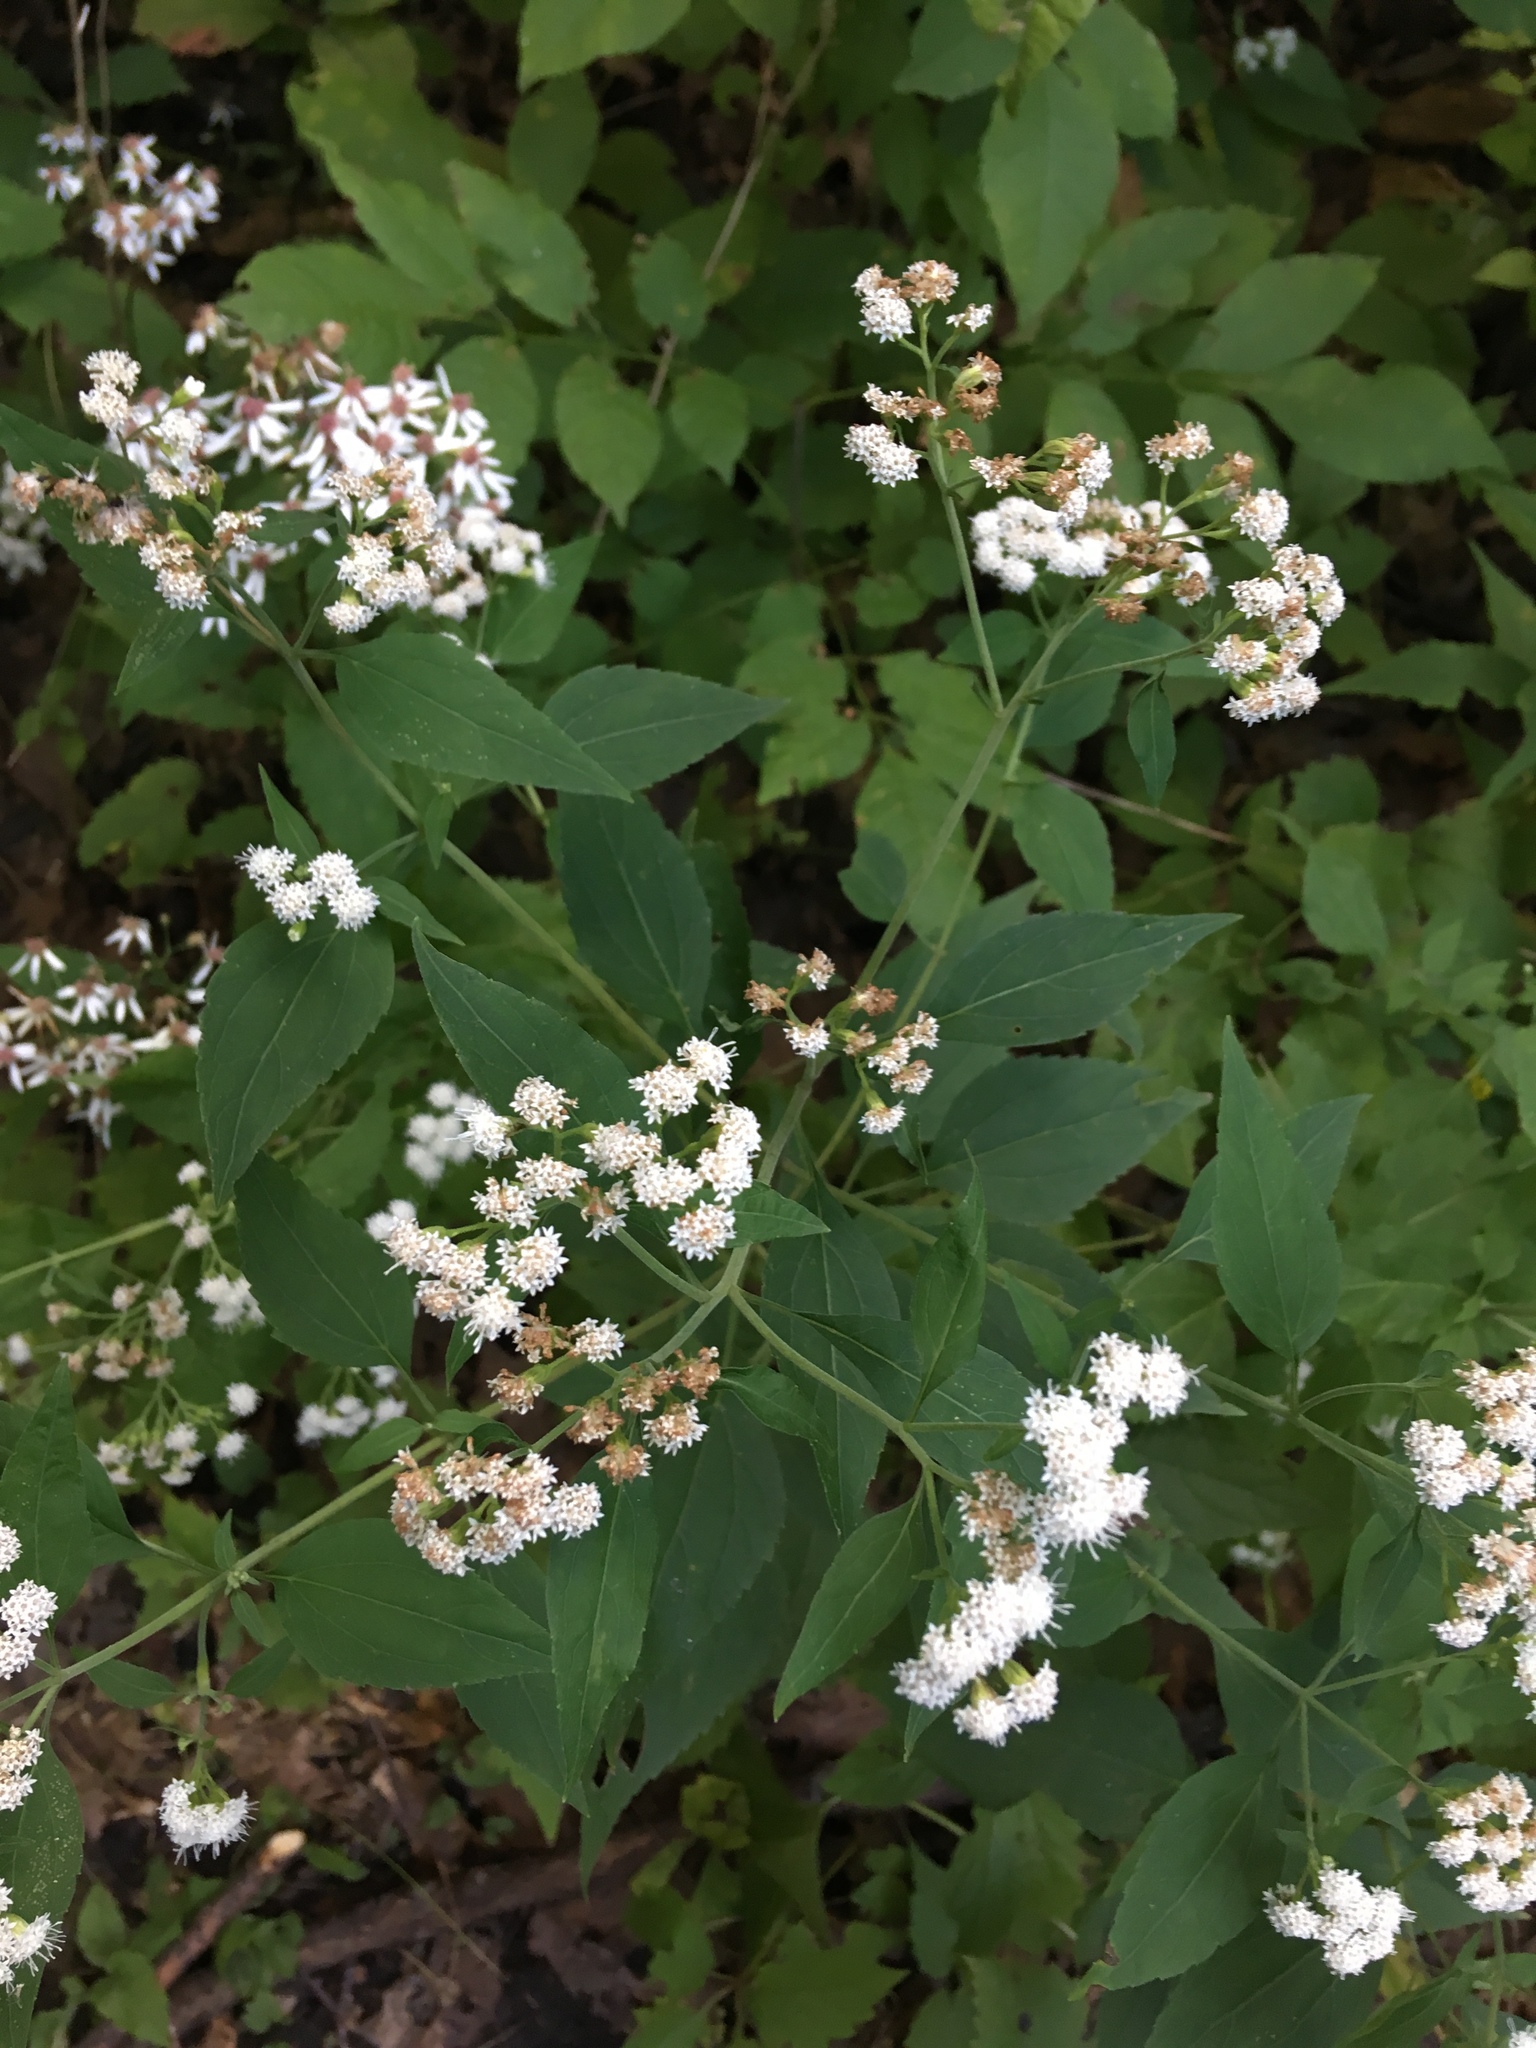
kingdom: Plantae
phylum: Tracheophyta
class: Magnoliopsida
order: Asterales
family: Asteraceae
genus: Ageratina
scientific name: Ageratina altissima
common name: White snakeroot
